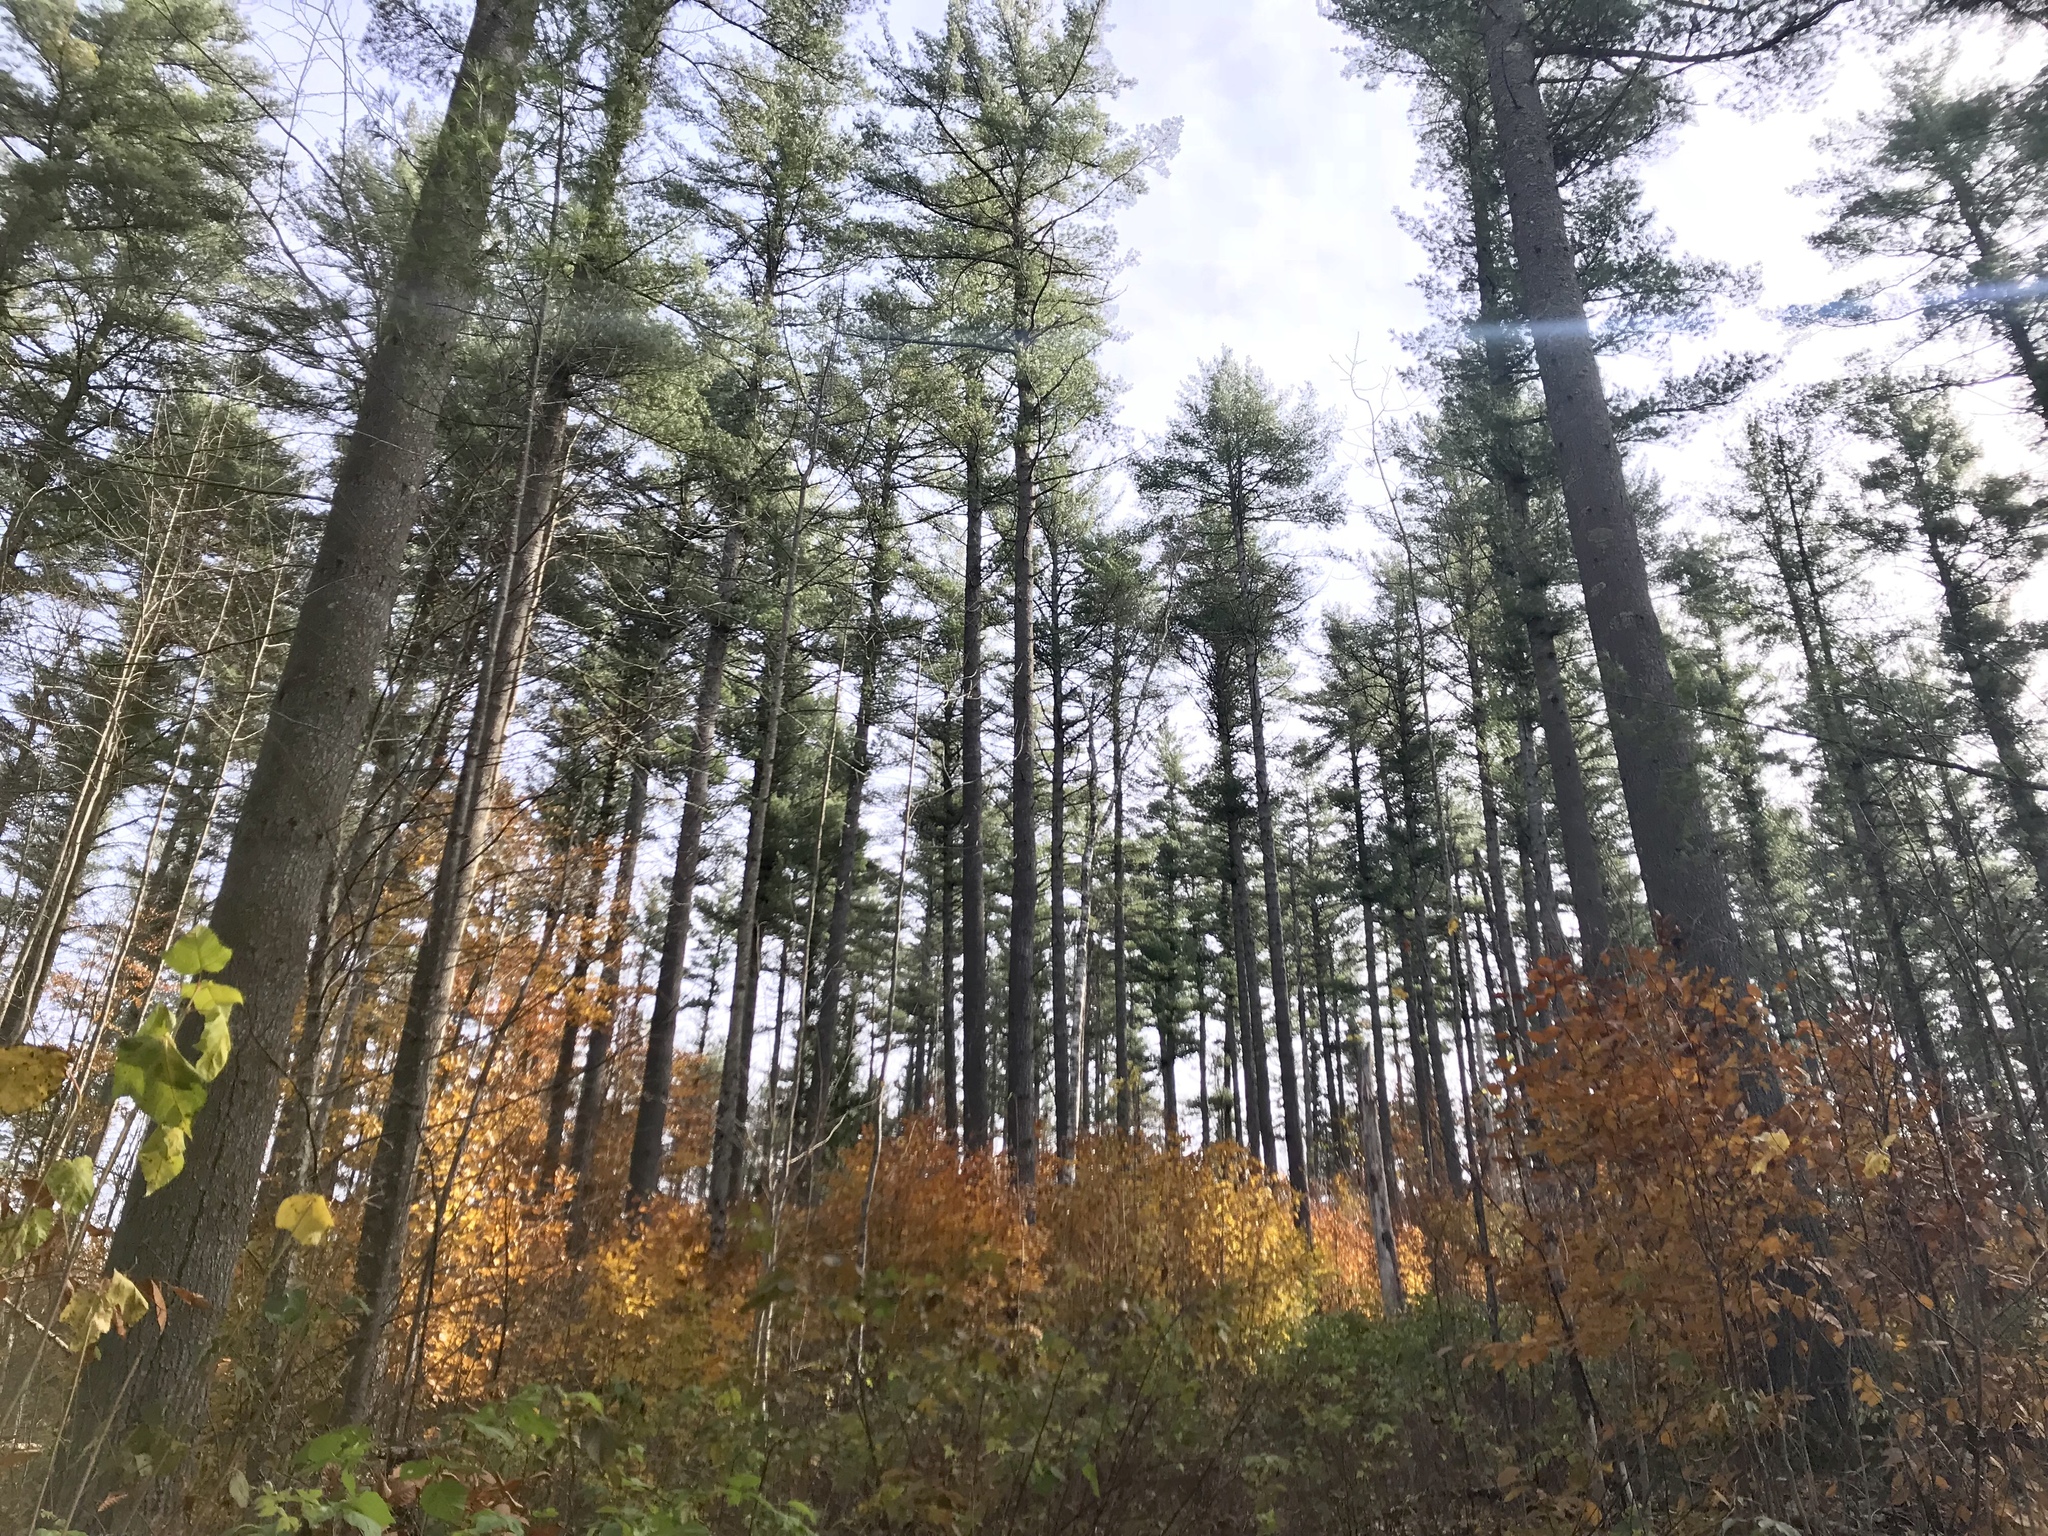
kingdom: Plantae
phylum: Tracheophyta
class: Pinopsida
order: Pinales
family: Pinaceae
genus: Pinus
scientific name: Pinus strobus
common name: Weymouth pine
